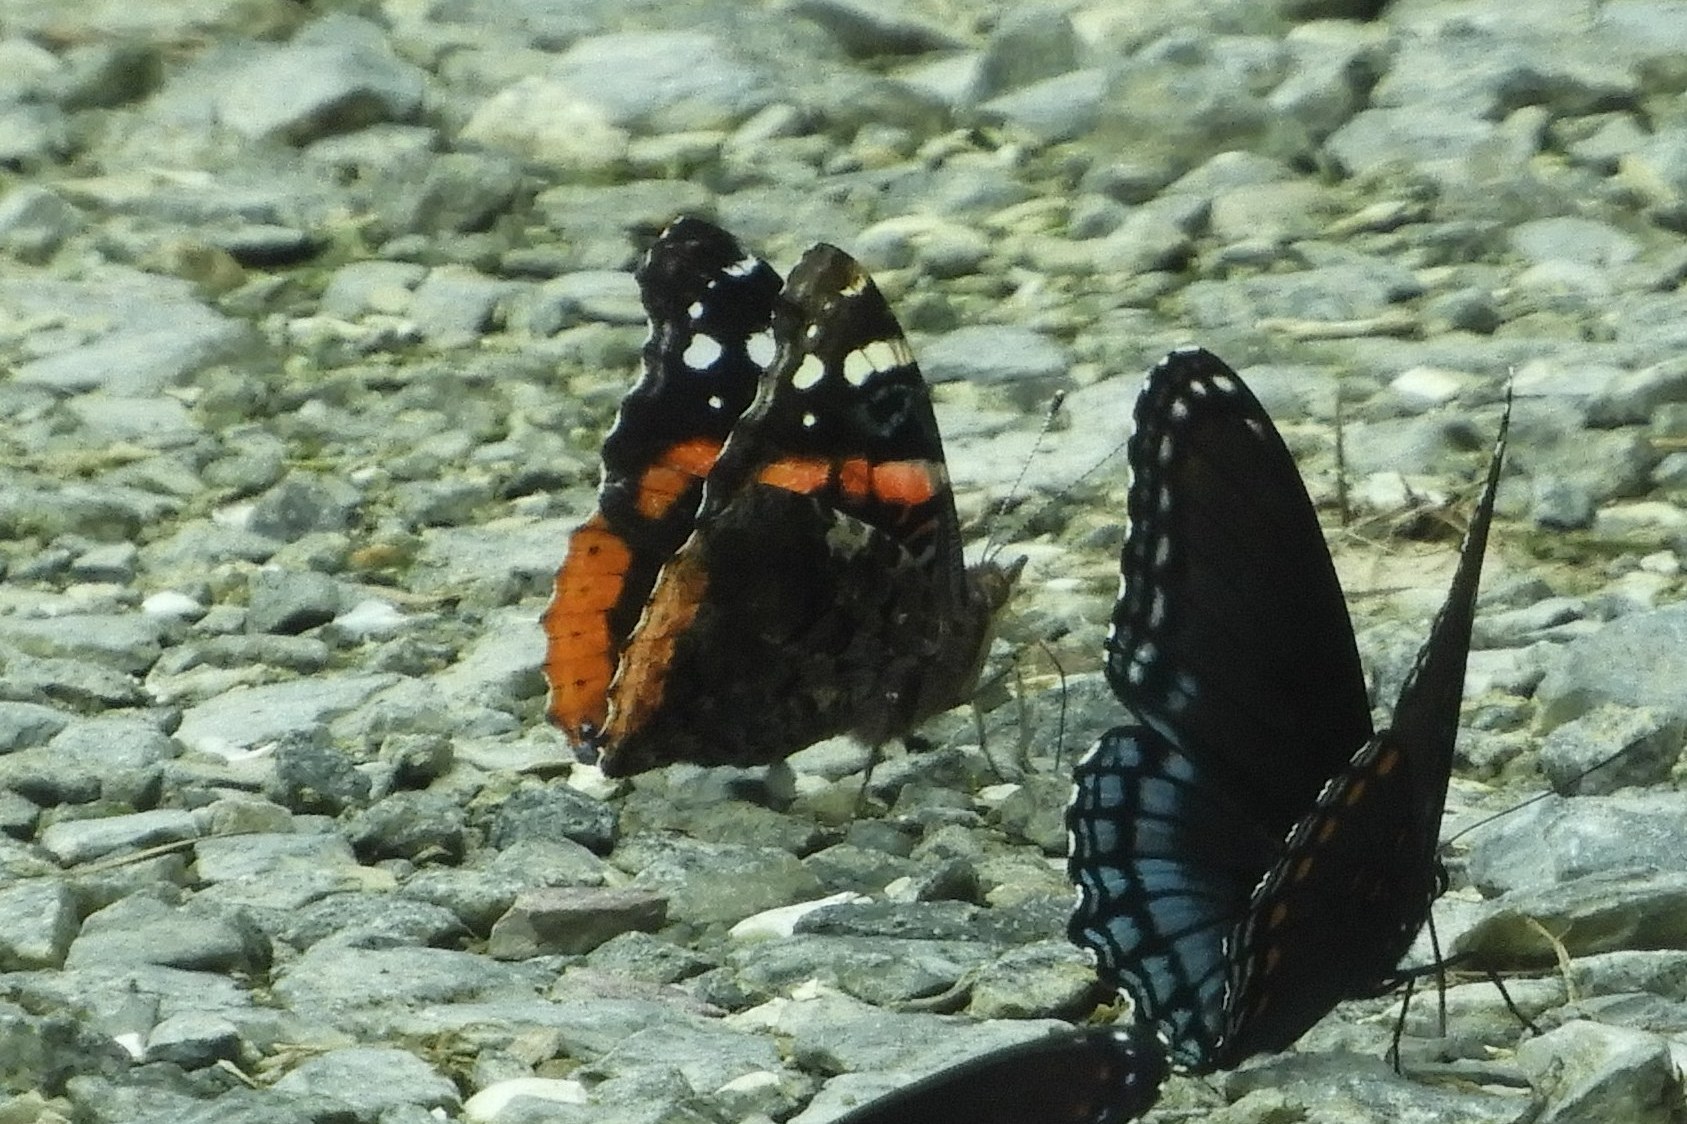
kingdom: Animalia
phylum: Arthropoda
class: Insecta
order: Lepidoptera
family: Nymphalidae
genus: Vanessa
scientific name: Vanessa atalanta
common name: Red admiral
